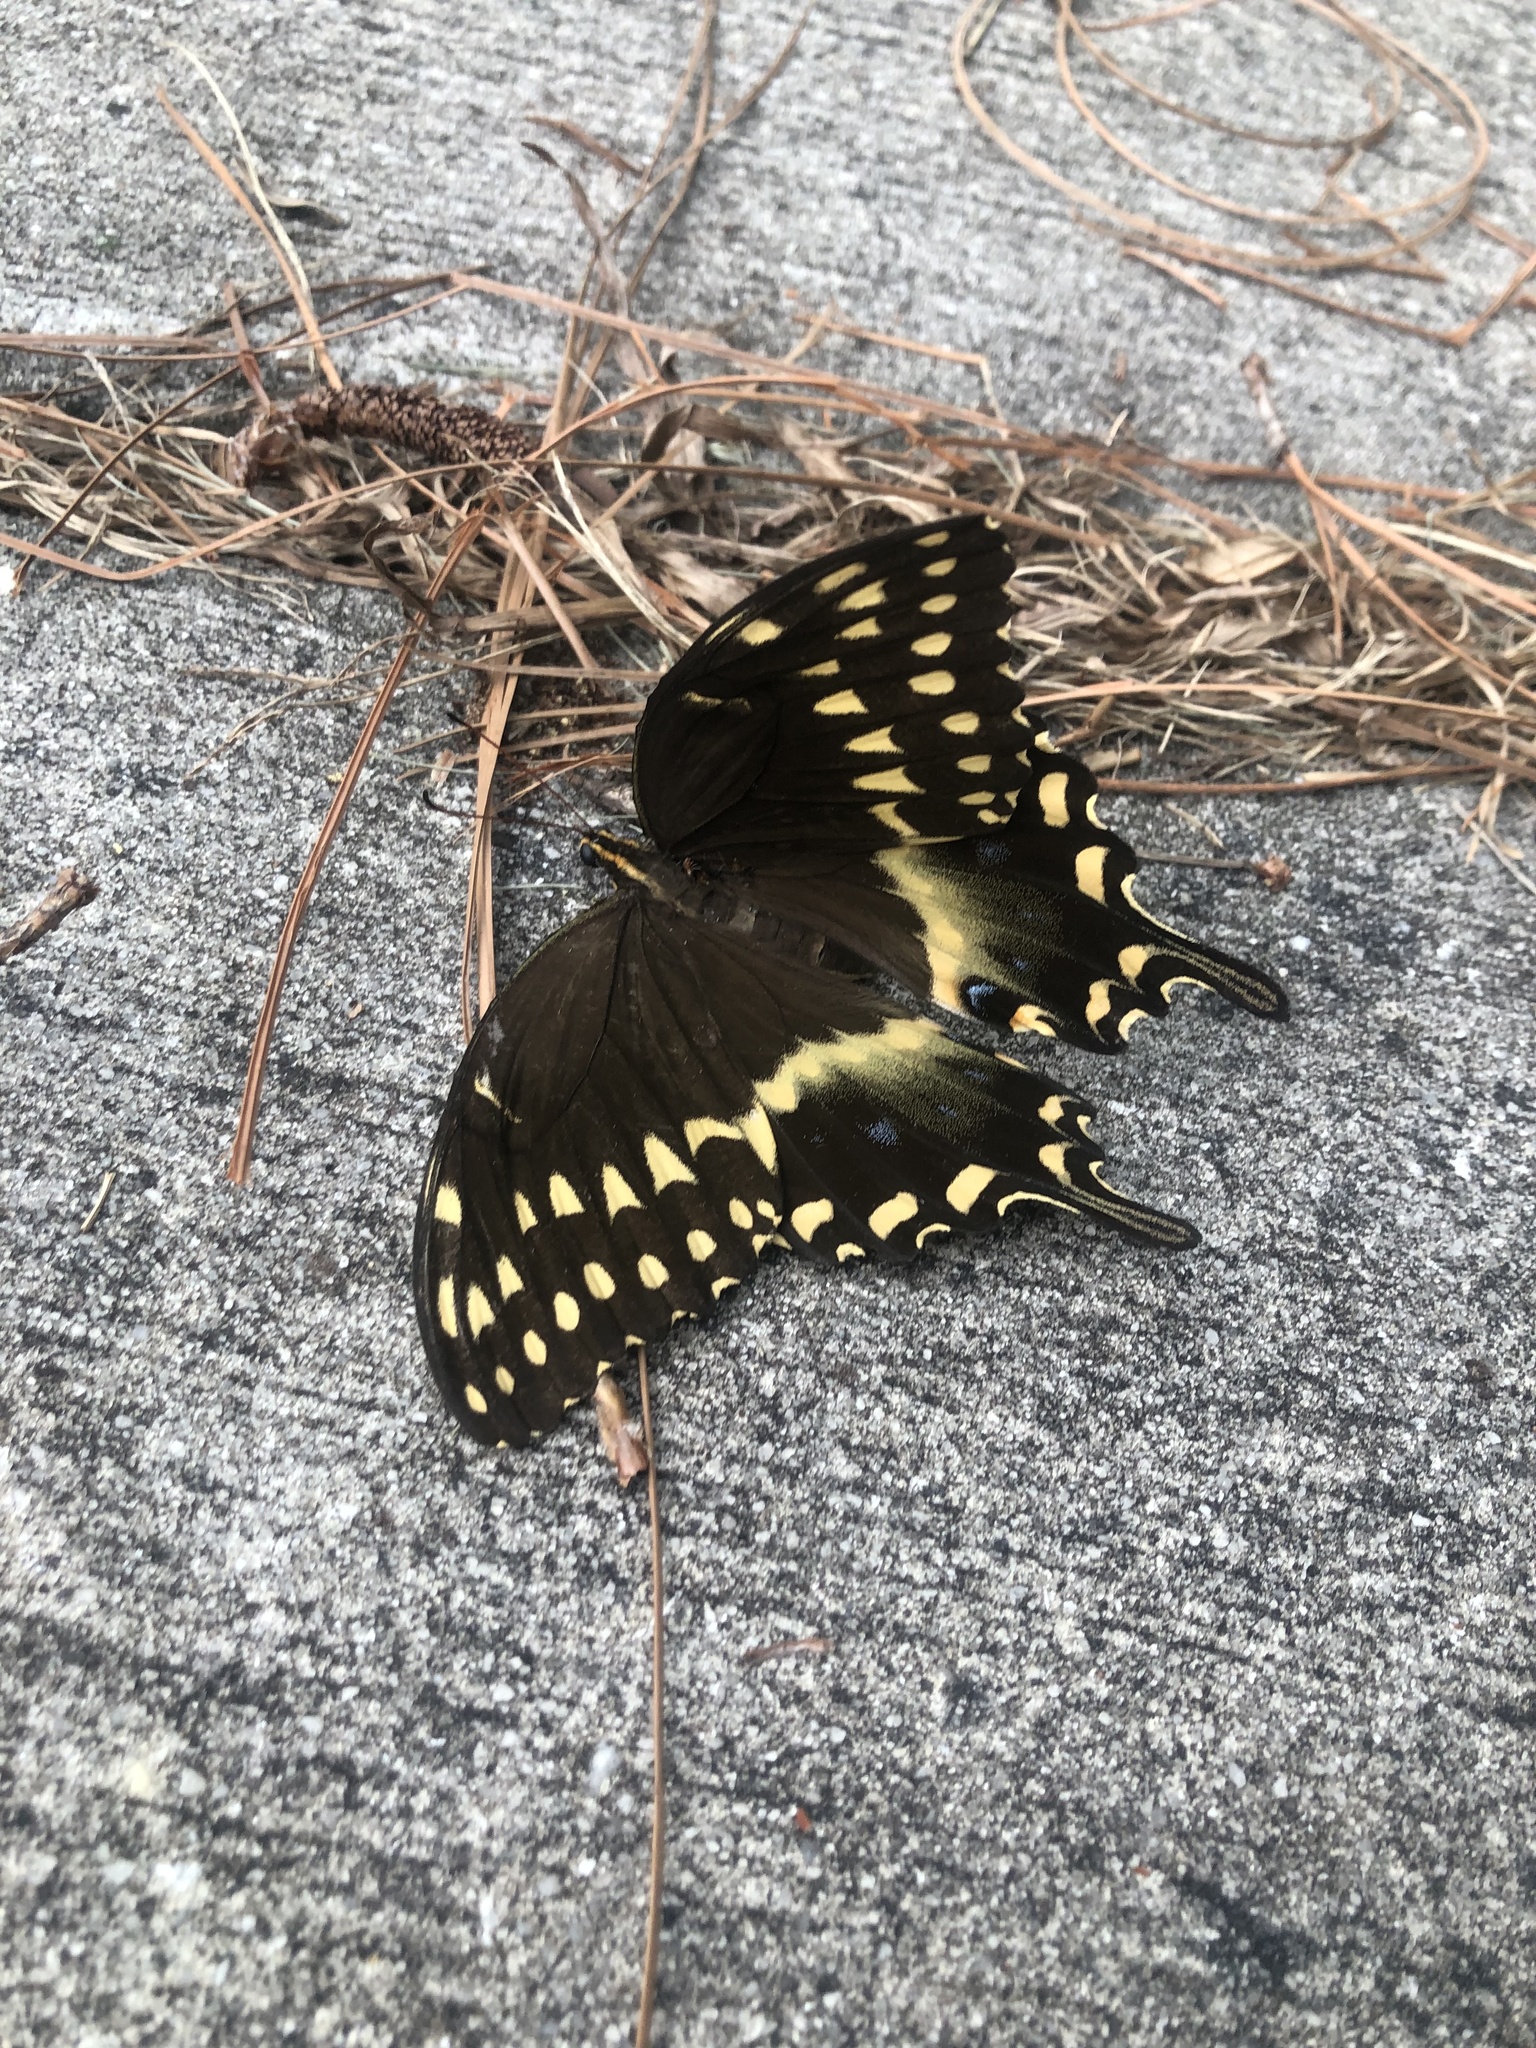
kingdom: Animalia
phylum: Arthropoda
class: Insecta
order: Lepidoptera
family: Papilionidae
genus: Papilio
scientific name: Papilio palamedes
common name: Palamedes swallowtail
